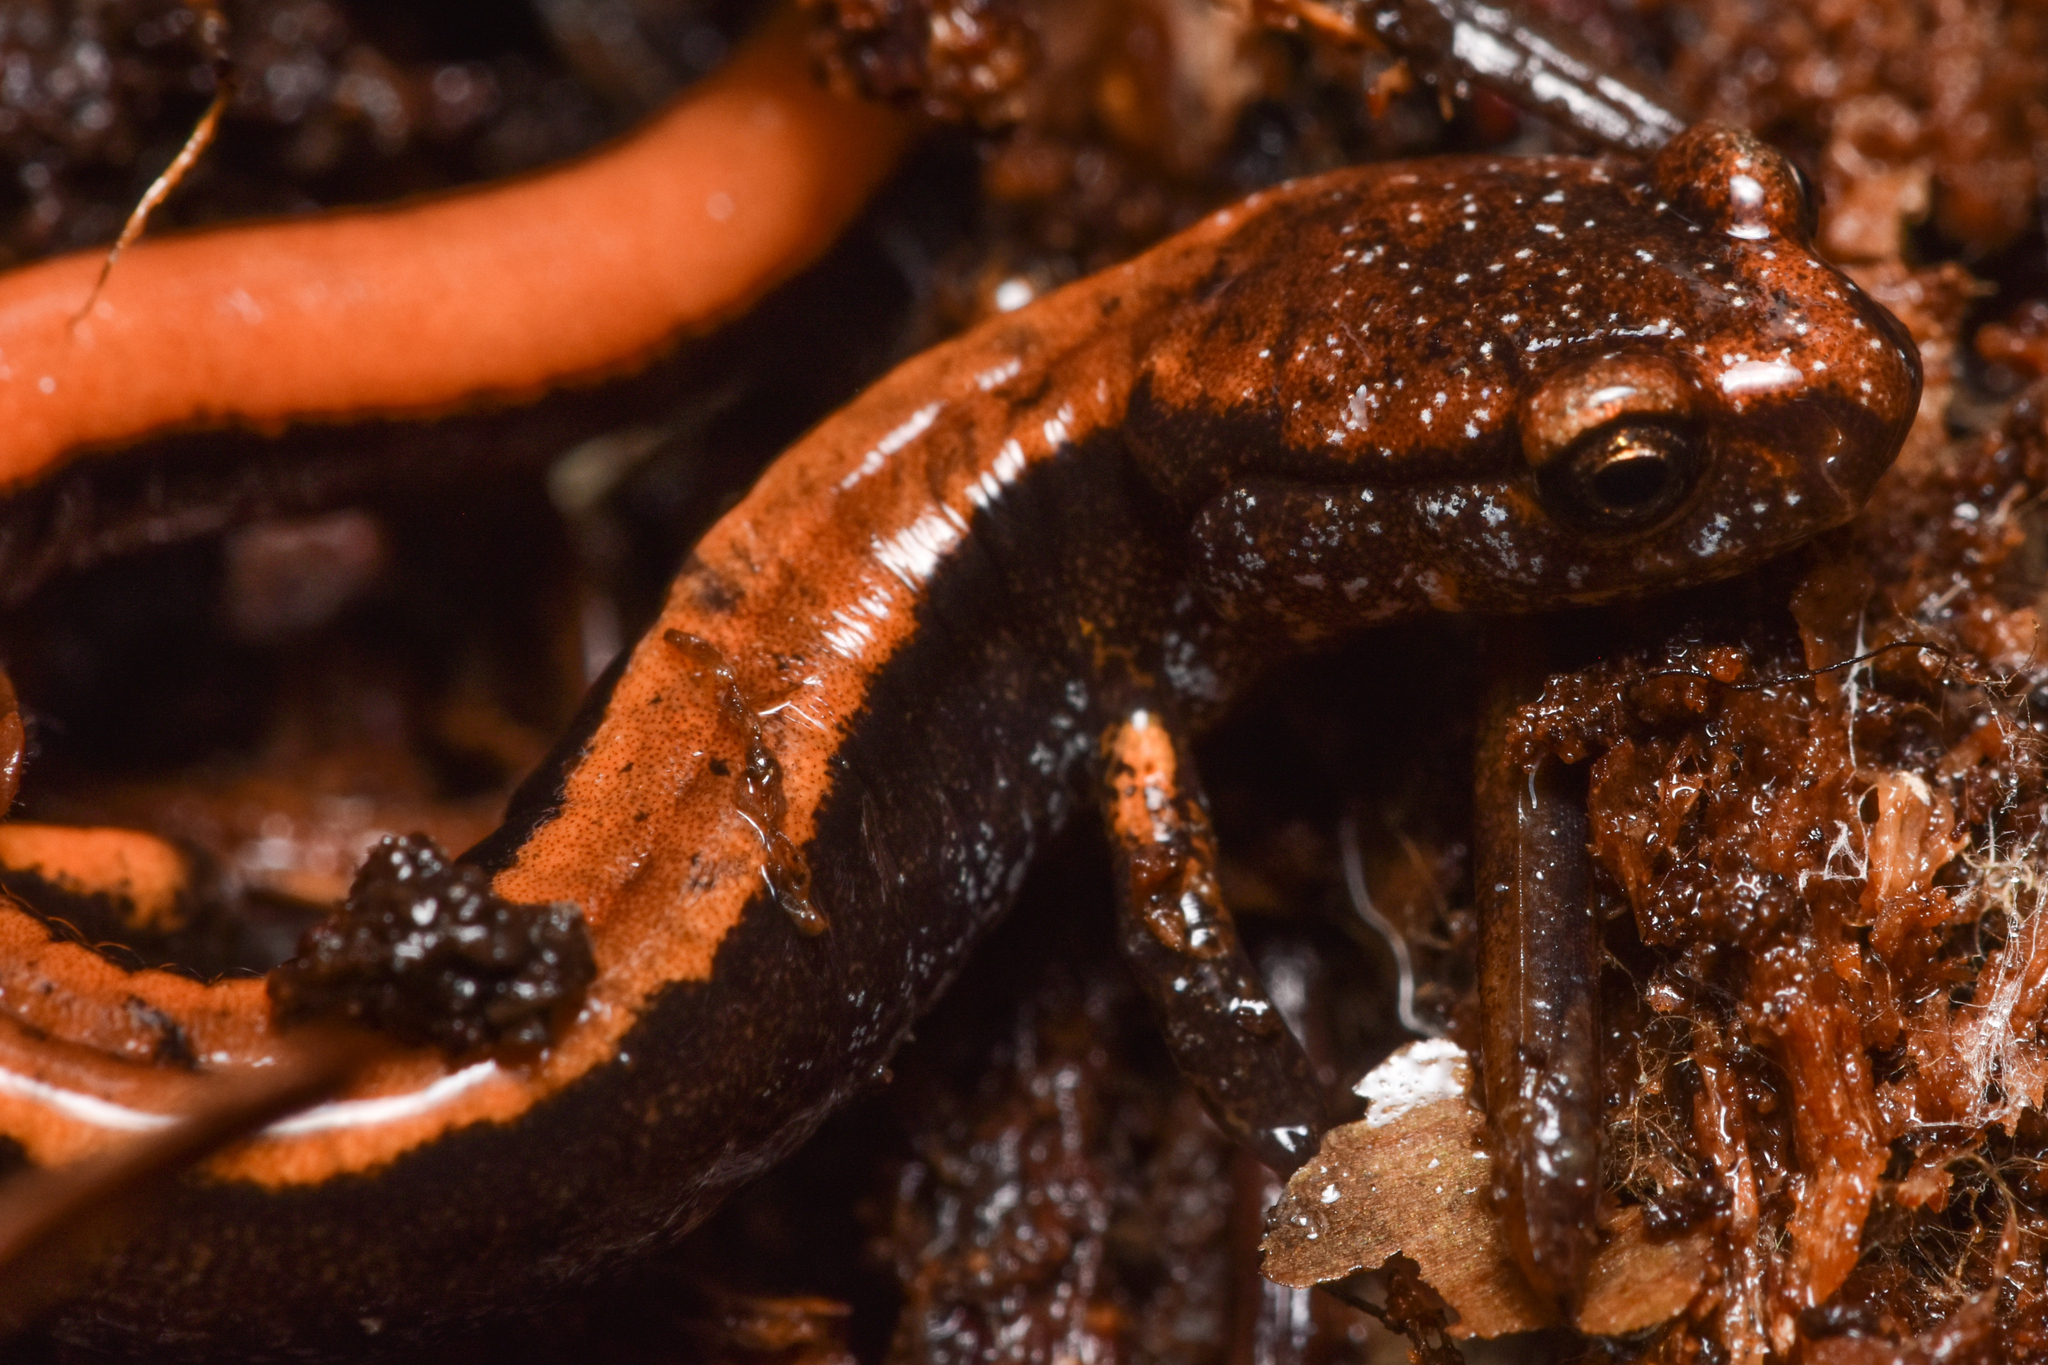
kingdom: Animalia
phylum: Chordata
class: Amphibia
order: Caudata
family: Plethodontidae
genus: Plethodon
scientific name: Plethodon vehiculum
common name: Western red-backed salamander
